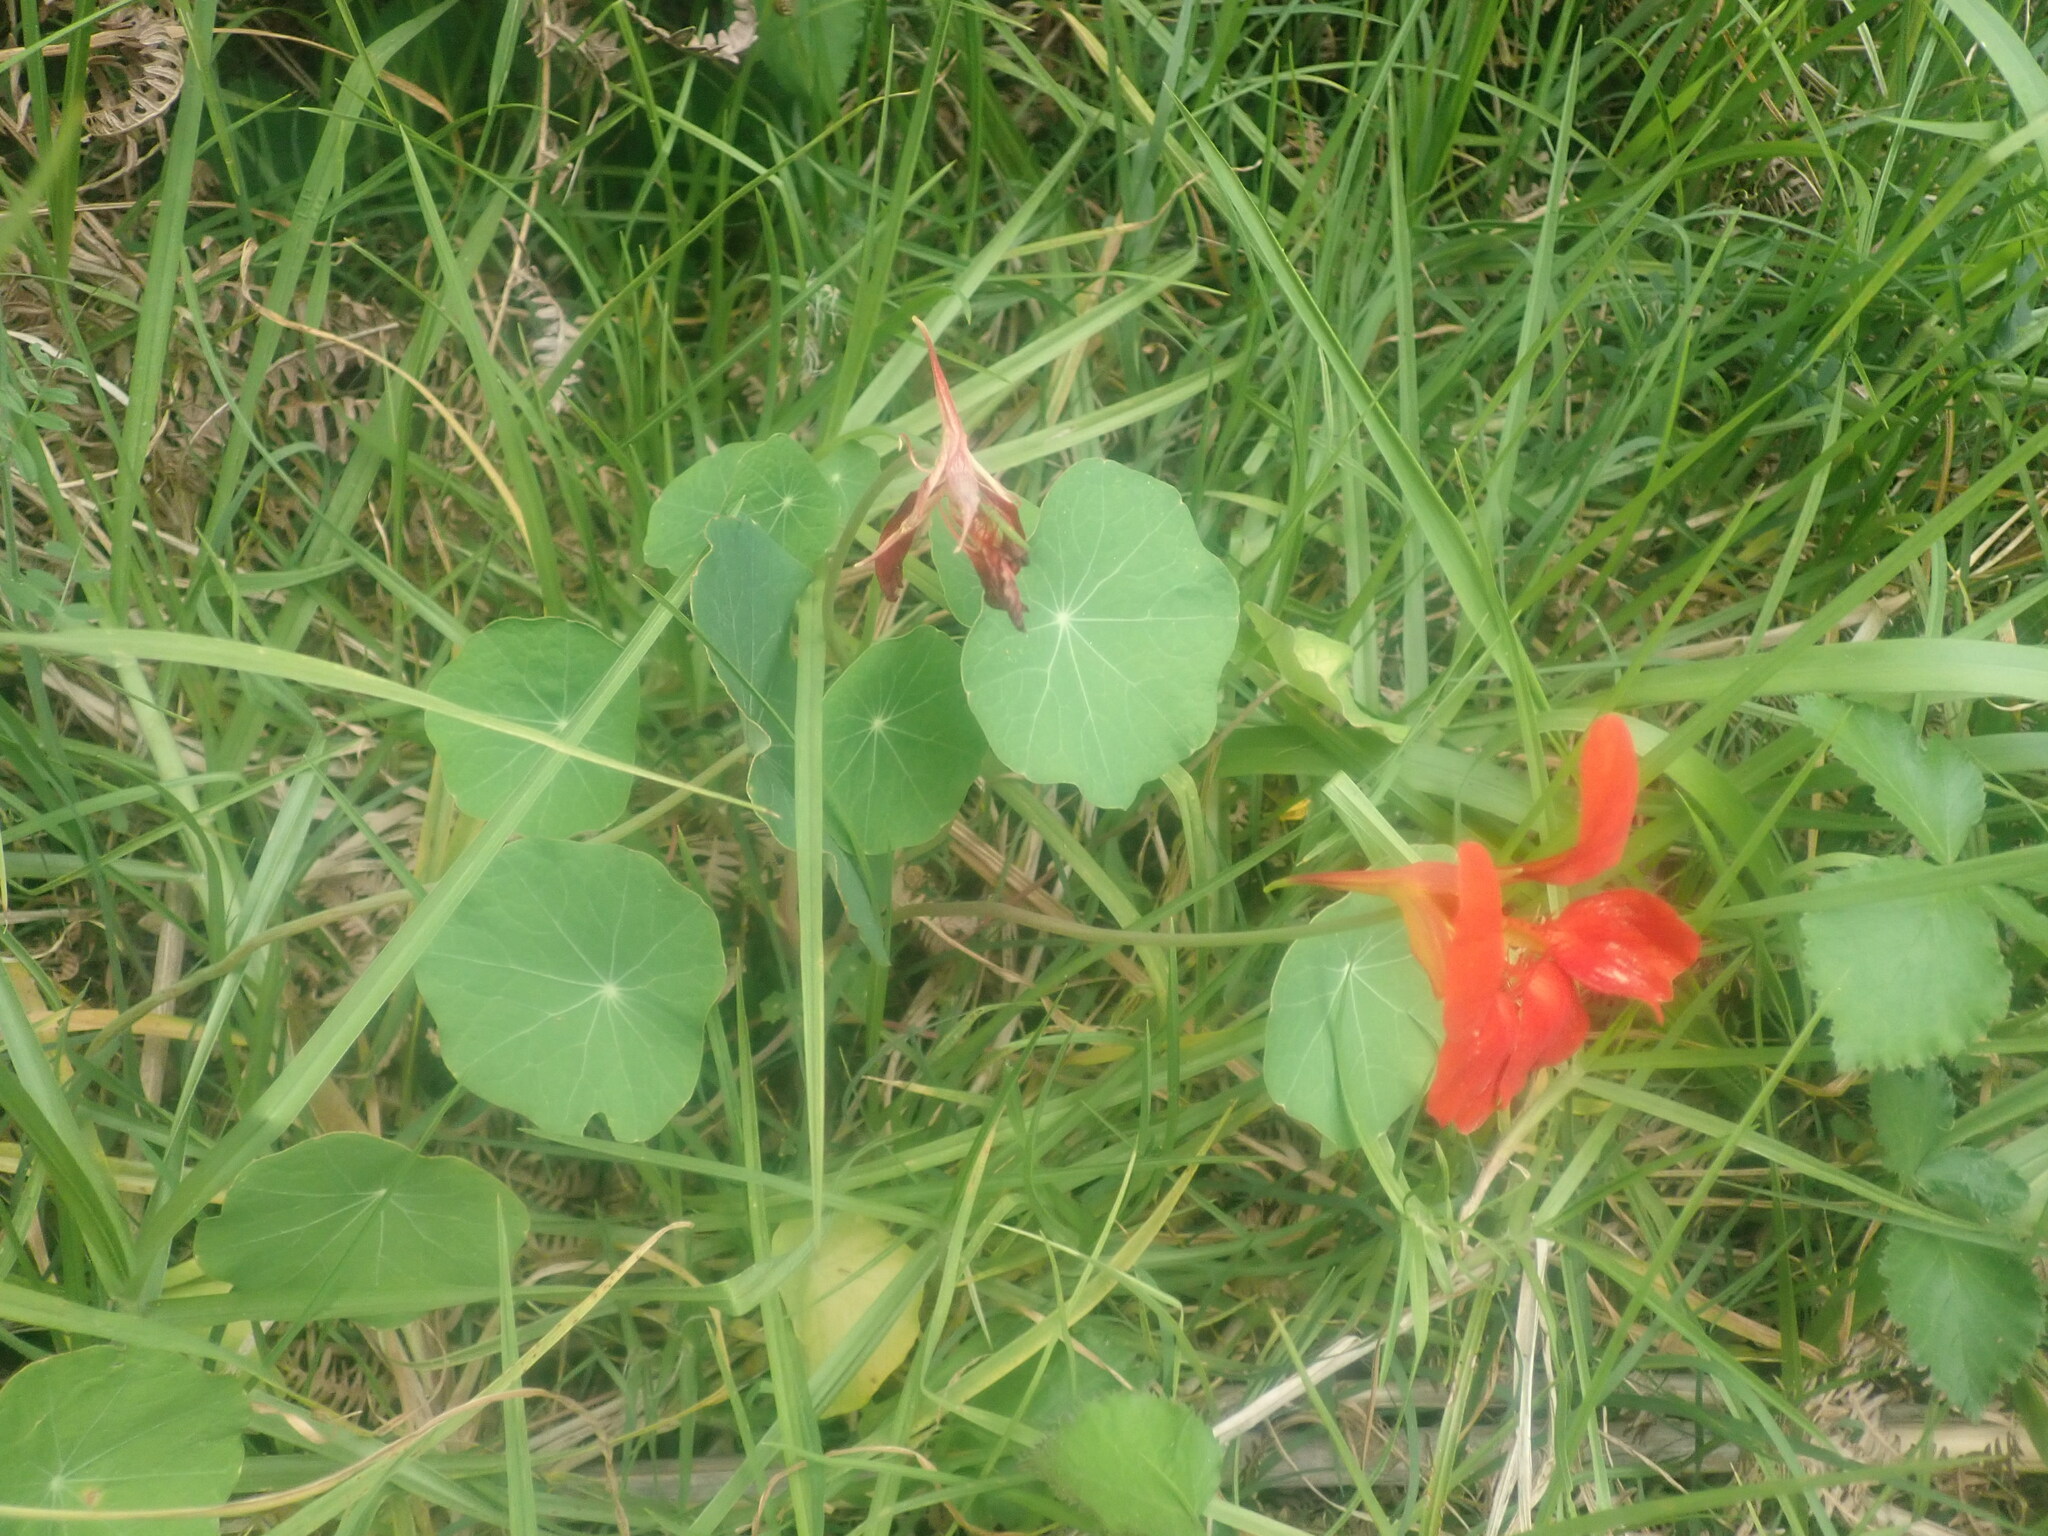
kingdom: Plantae
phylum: Tracheophyta
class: Magnoliopsida
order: Brassicales
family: Tropaeolaceae
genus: Tropaeolum
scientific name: Tropaeolum majus
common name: Nasturtium
